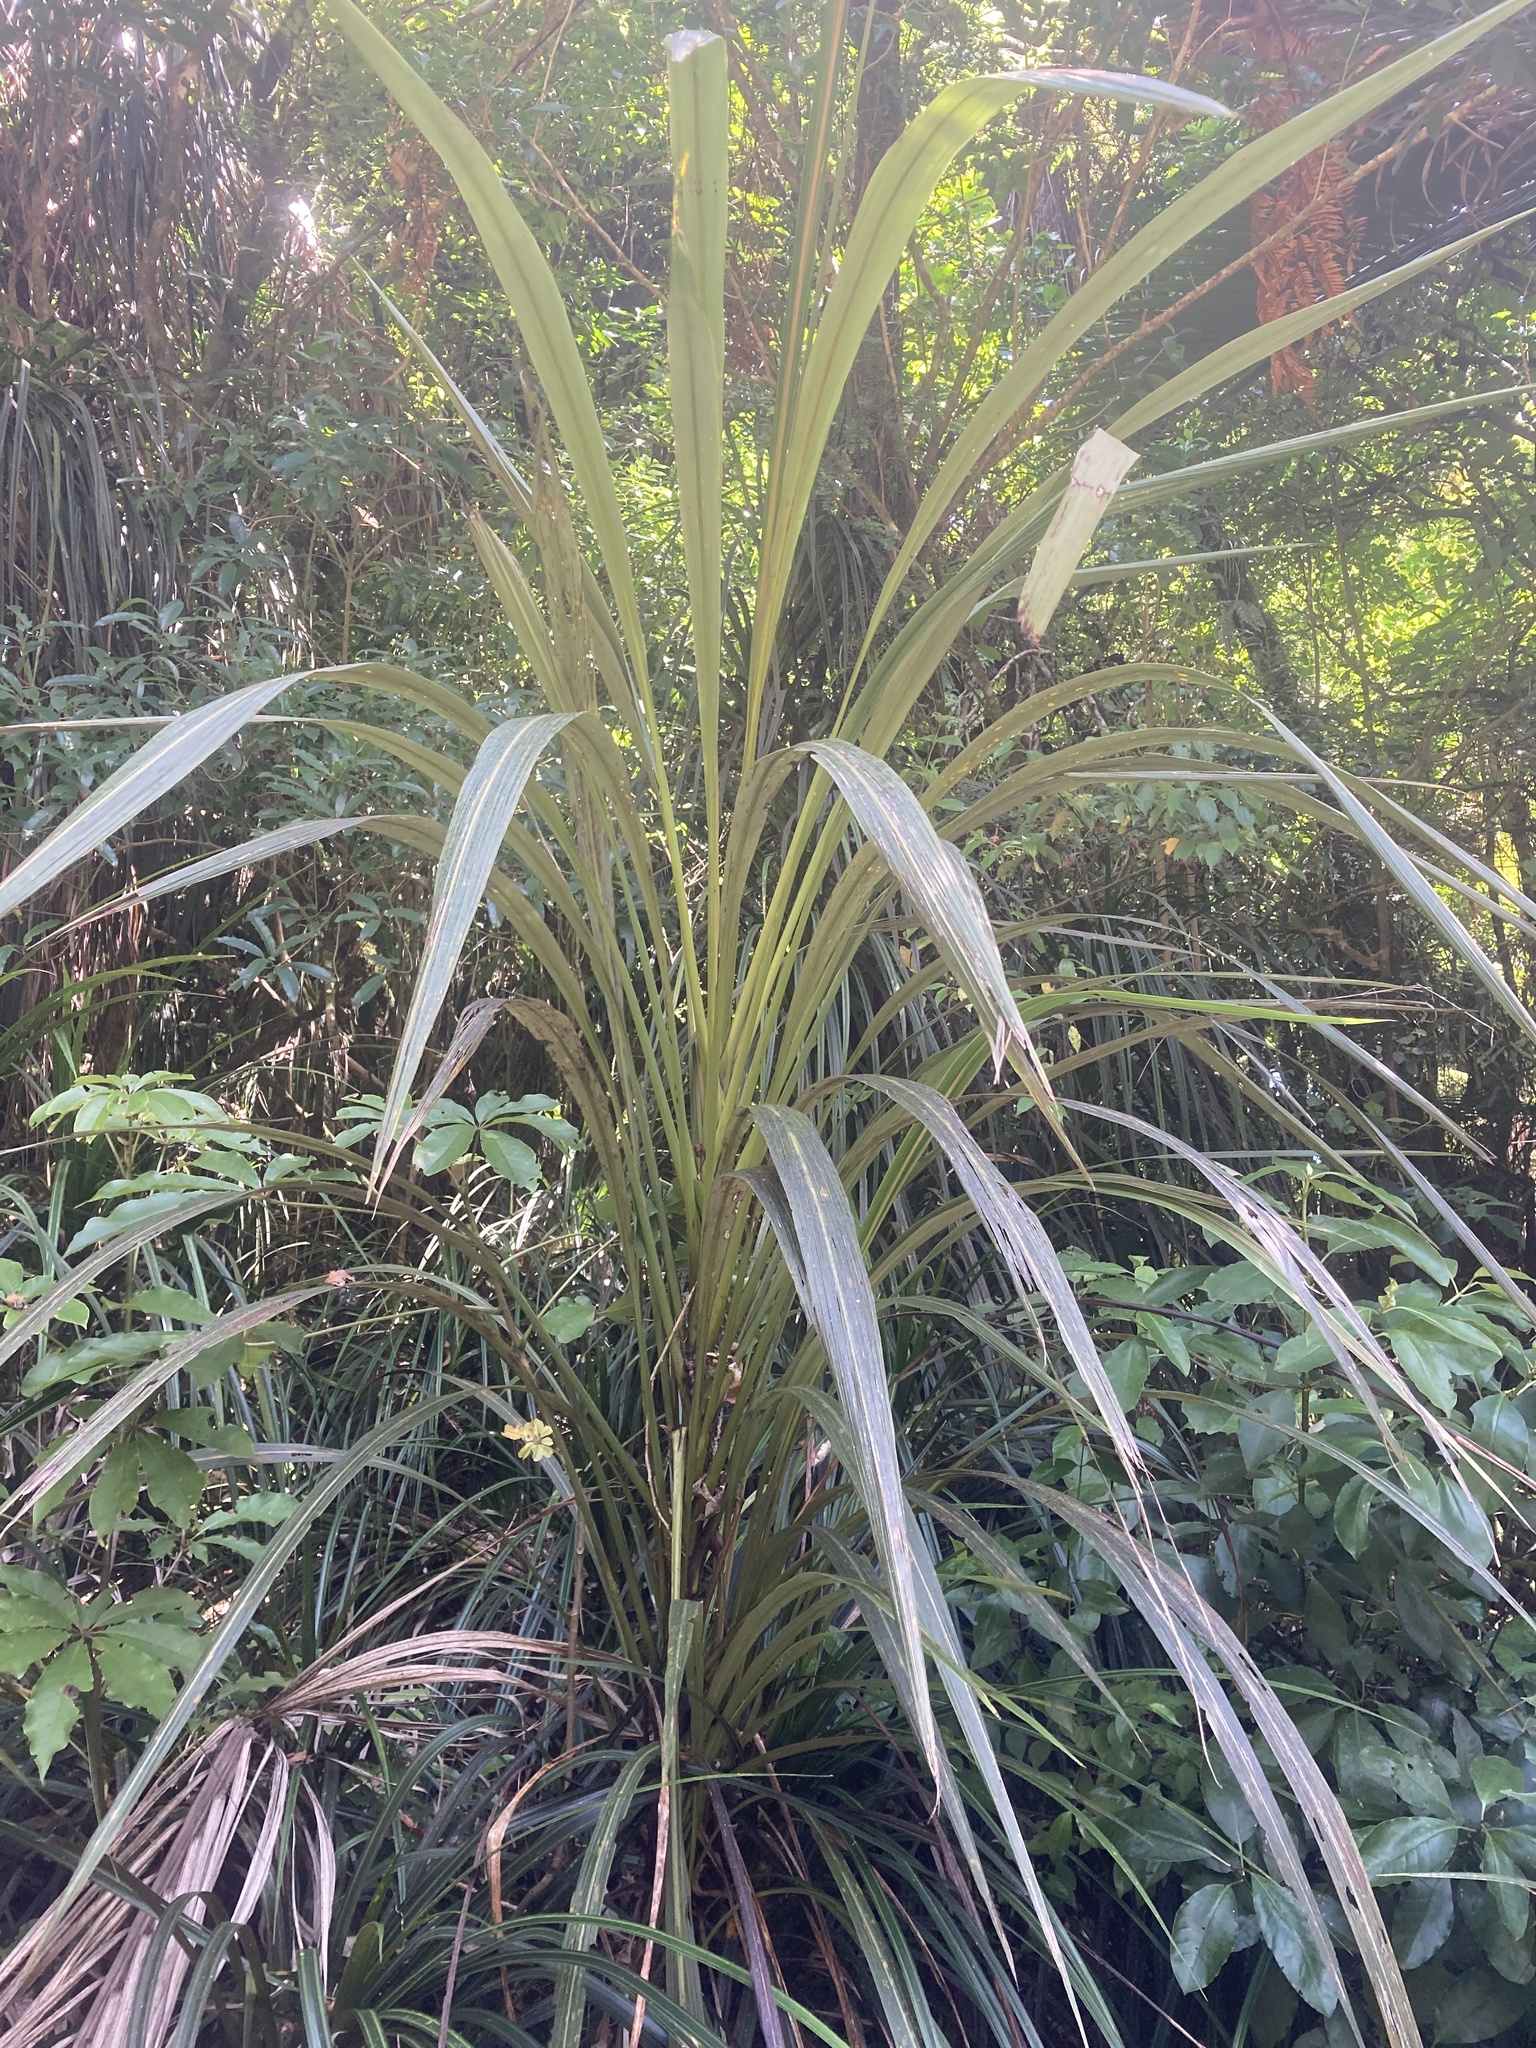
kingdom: Plantae
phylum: Tracheophyta
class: Liliopsida
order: Asparagales
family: Asparagaceae
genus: Cordyline
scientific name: Cordyline banksii
